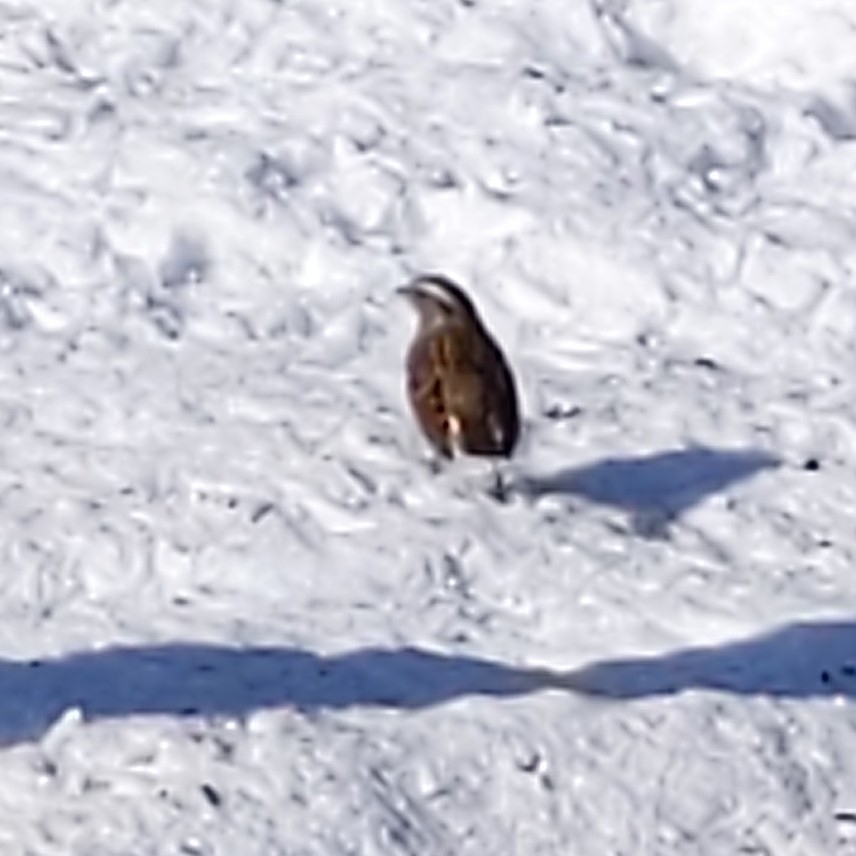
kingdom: Animalia
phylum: Chordata
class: Aves
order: Passeriformes
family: Passerellidae
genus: Zonotrichia
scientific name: Zonotrichia albicollis
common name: White-throated sparrow
